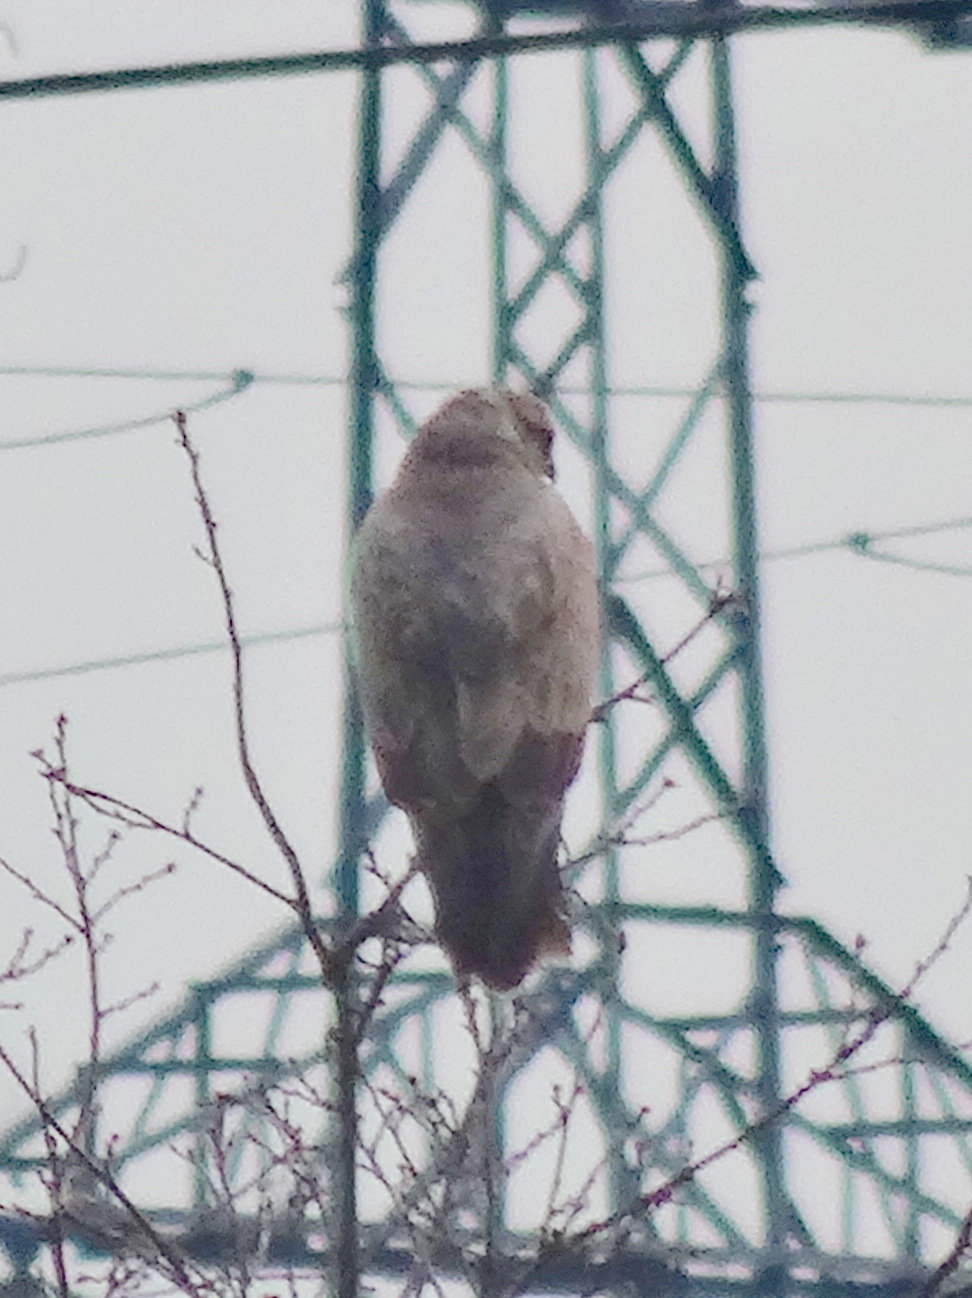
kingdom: Animalia
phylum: Chordata
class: Aves
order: Accipitriformes
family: Accipitridae
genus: Buteo
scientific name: Buteo buteo
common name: Common buzzard
